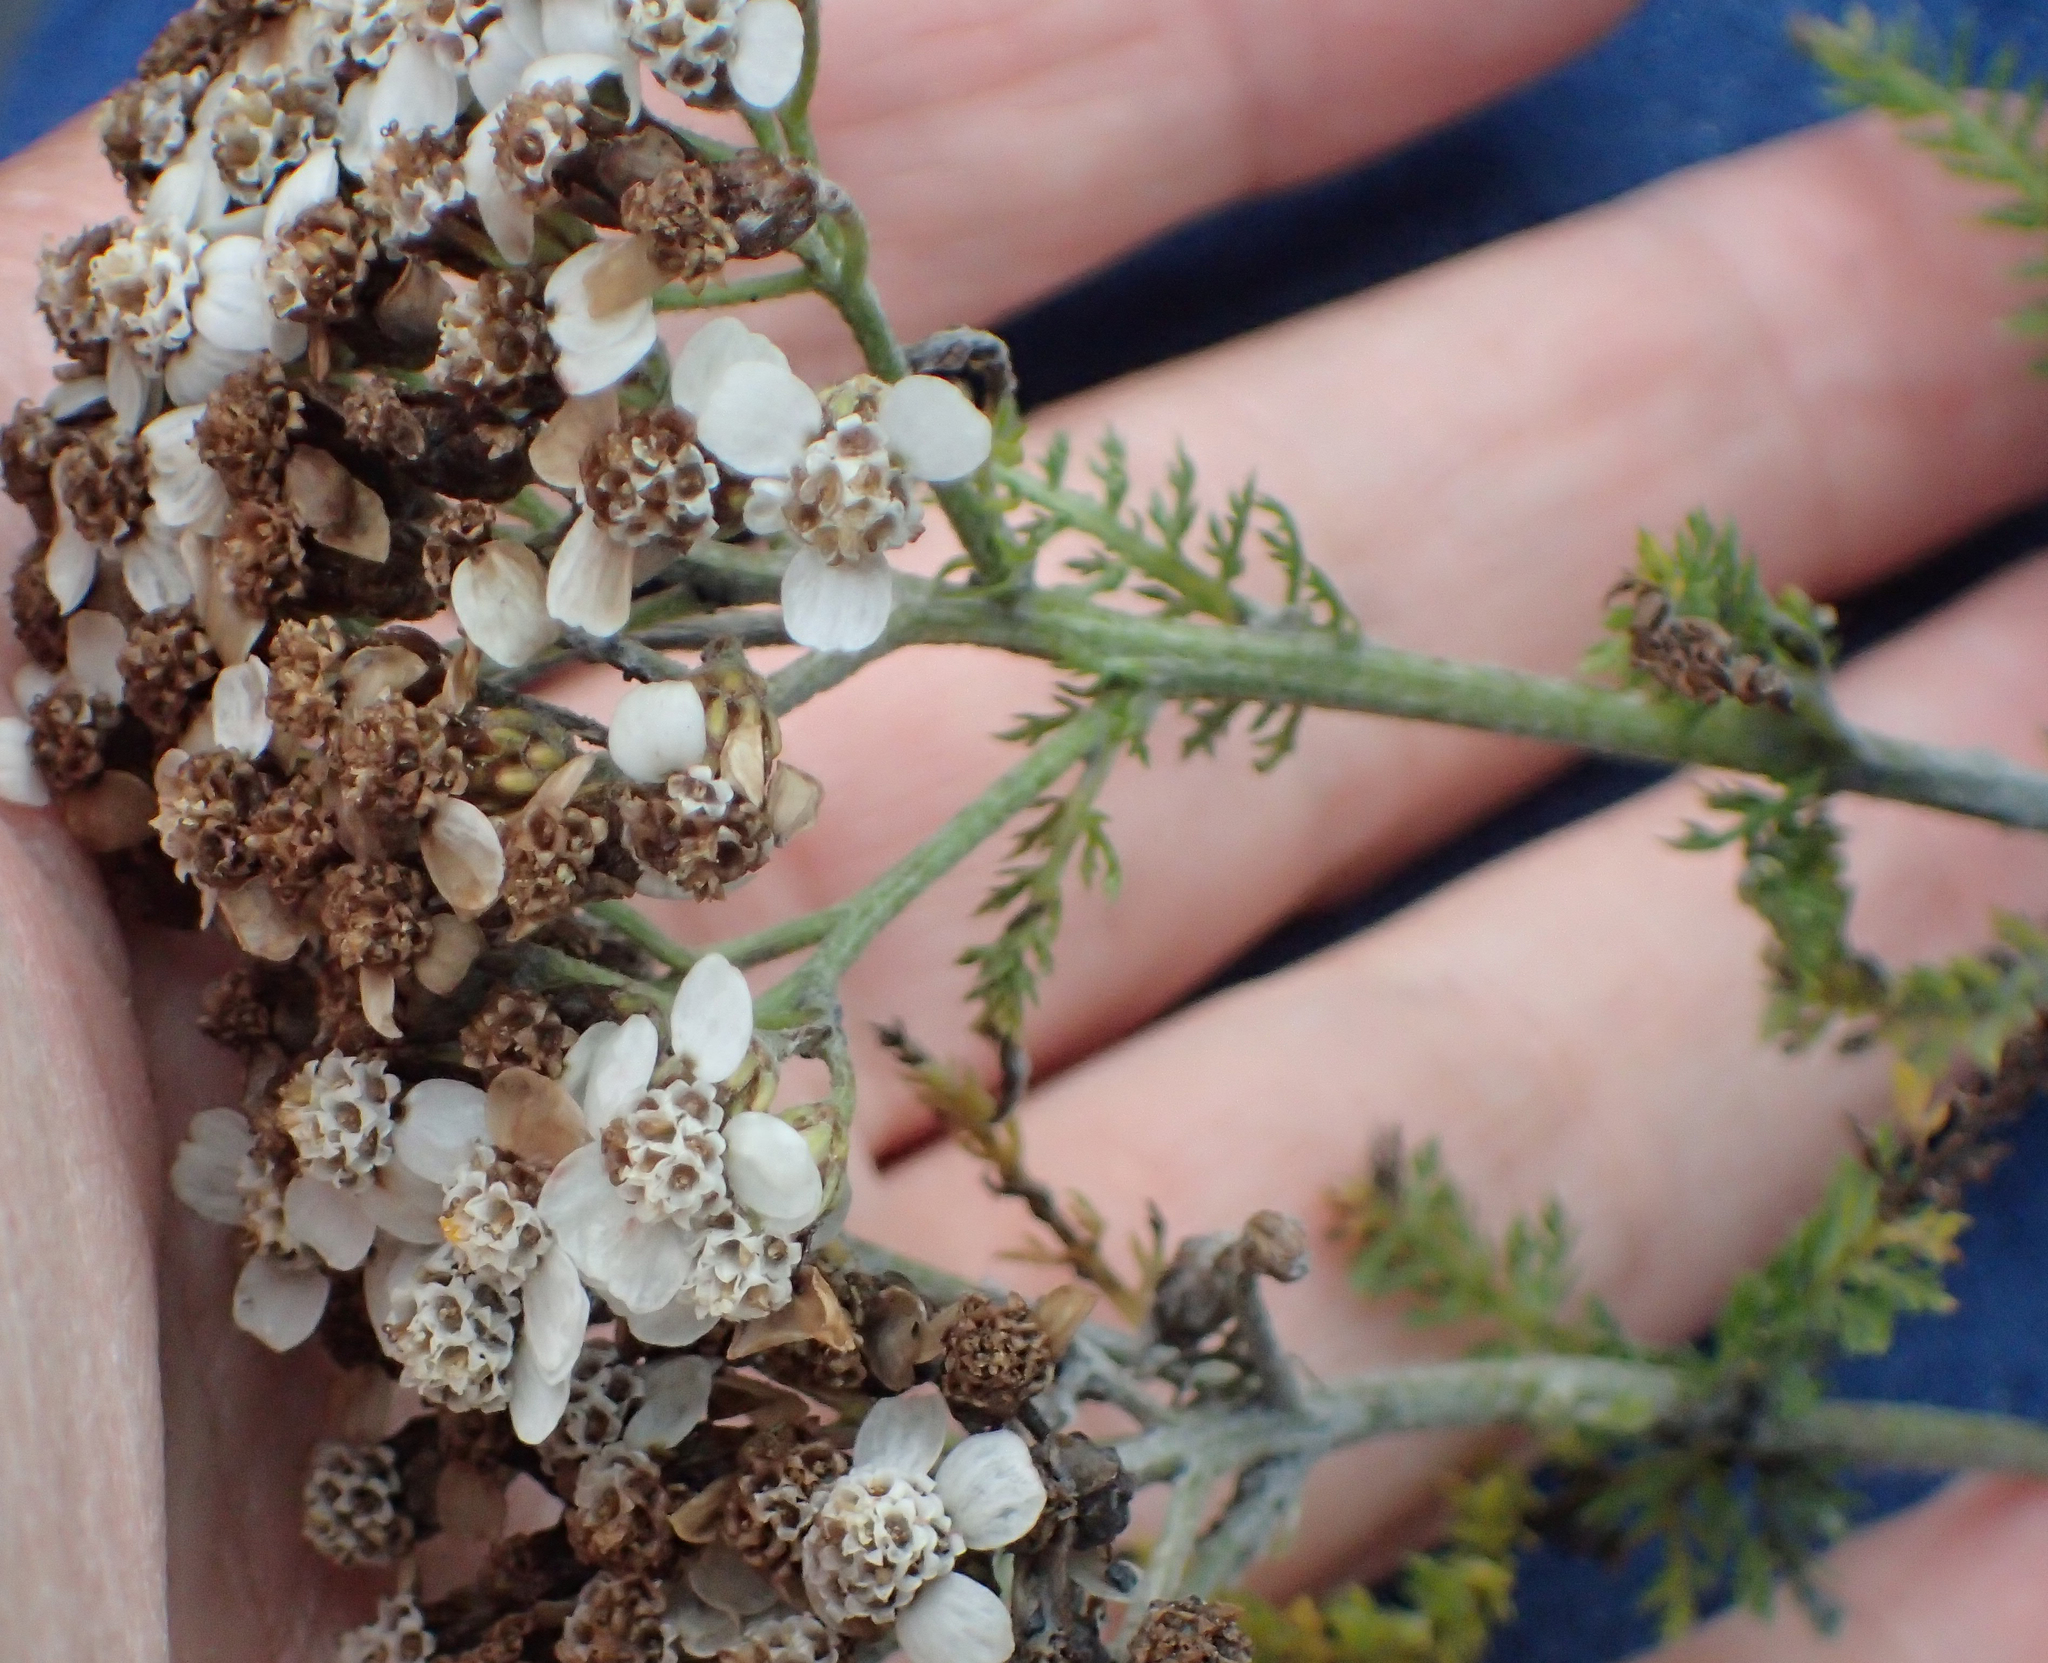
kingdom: Plantae
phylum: Tracheophyta
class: Magnoliopsida
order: Asterales
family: Asteraceae
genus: Achillea
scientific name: Achillea millefolium
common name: Yarrow
